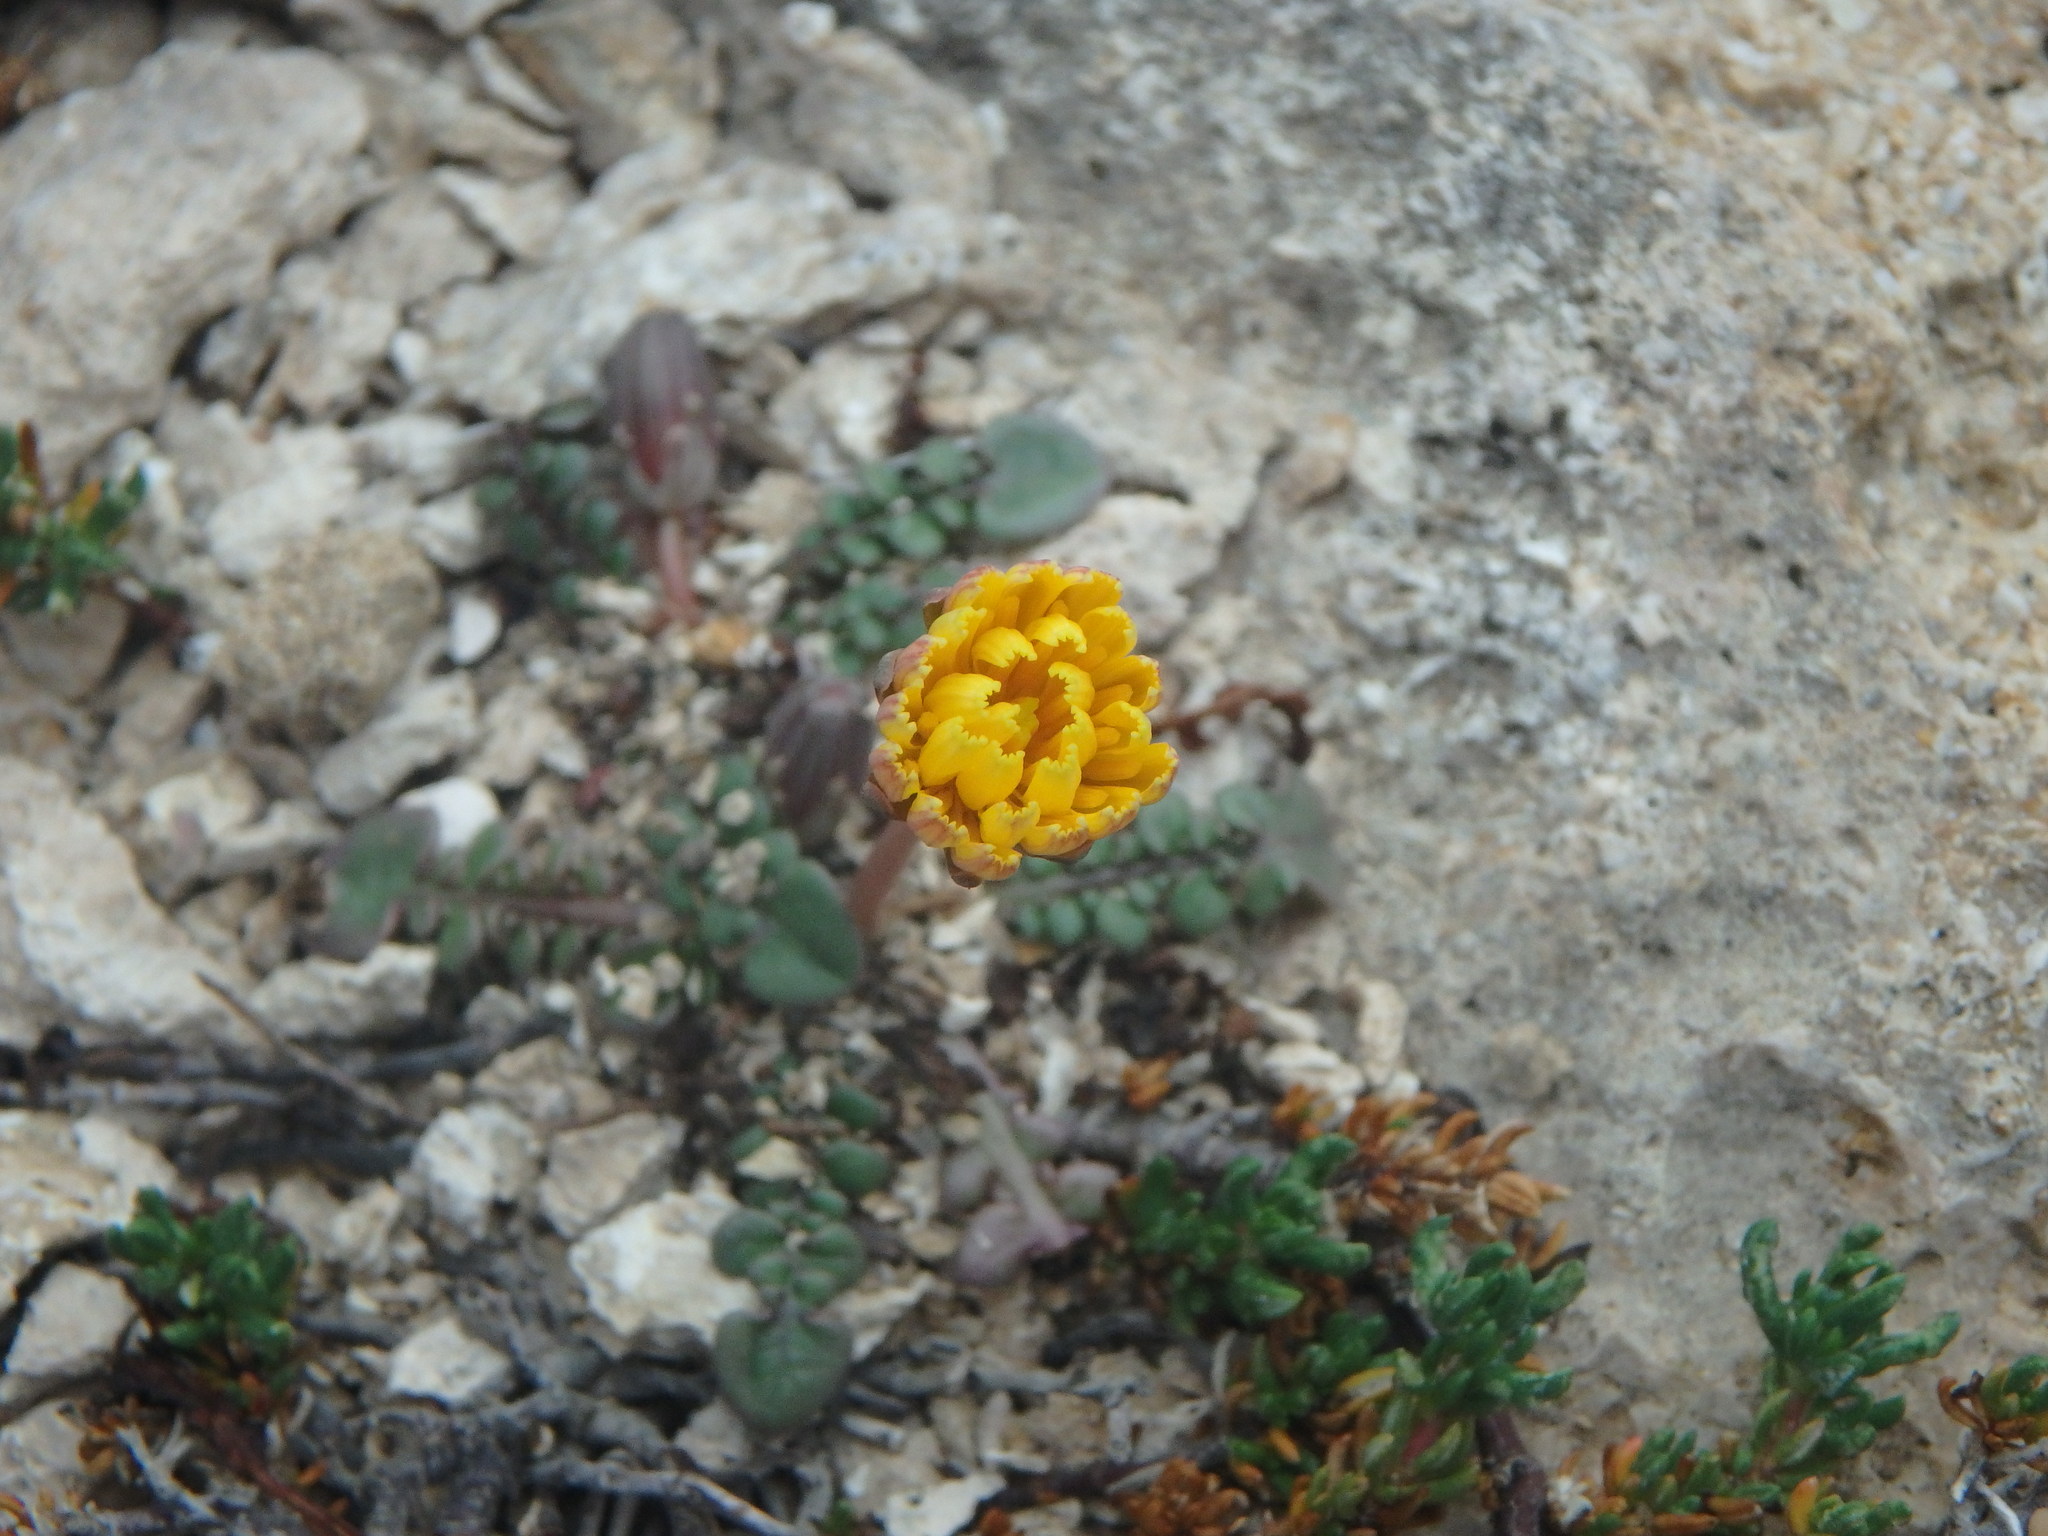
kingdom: Plantae
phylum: Tracheophyta
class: Magnoliopsida
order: Asterales
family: Asteraceae
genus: Taraxacum
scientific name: Taraxacum aphrogenes
